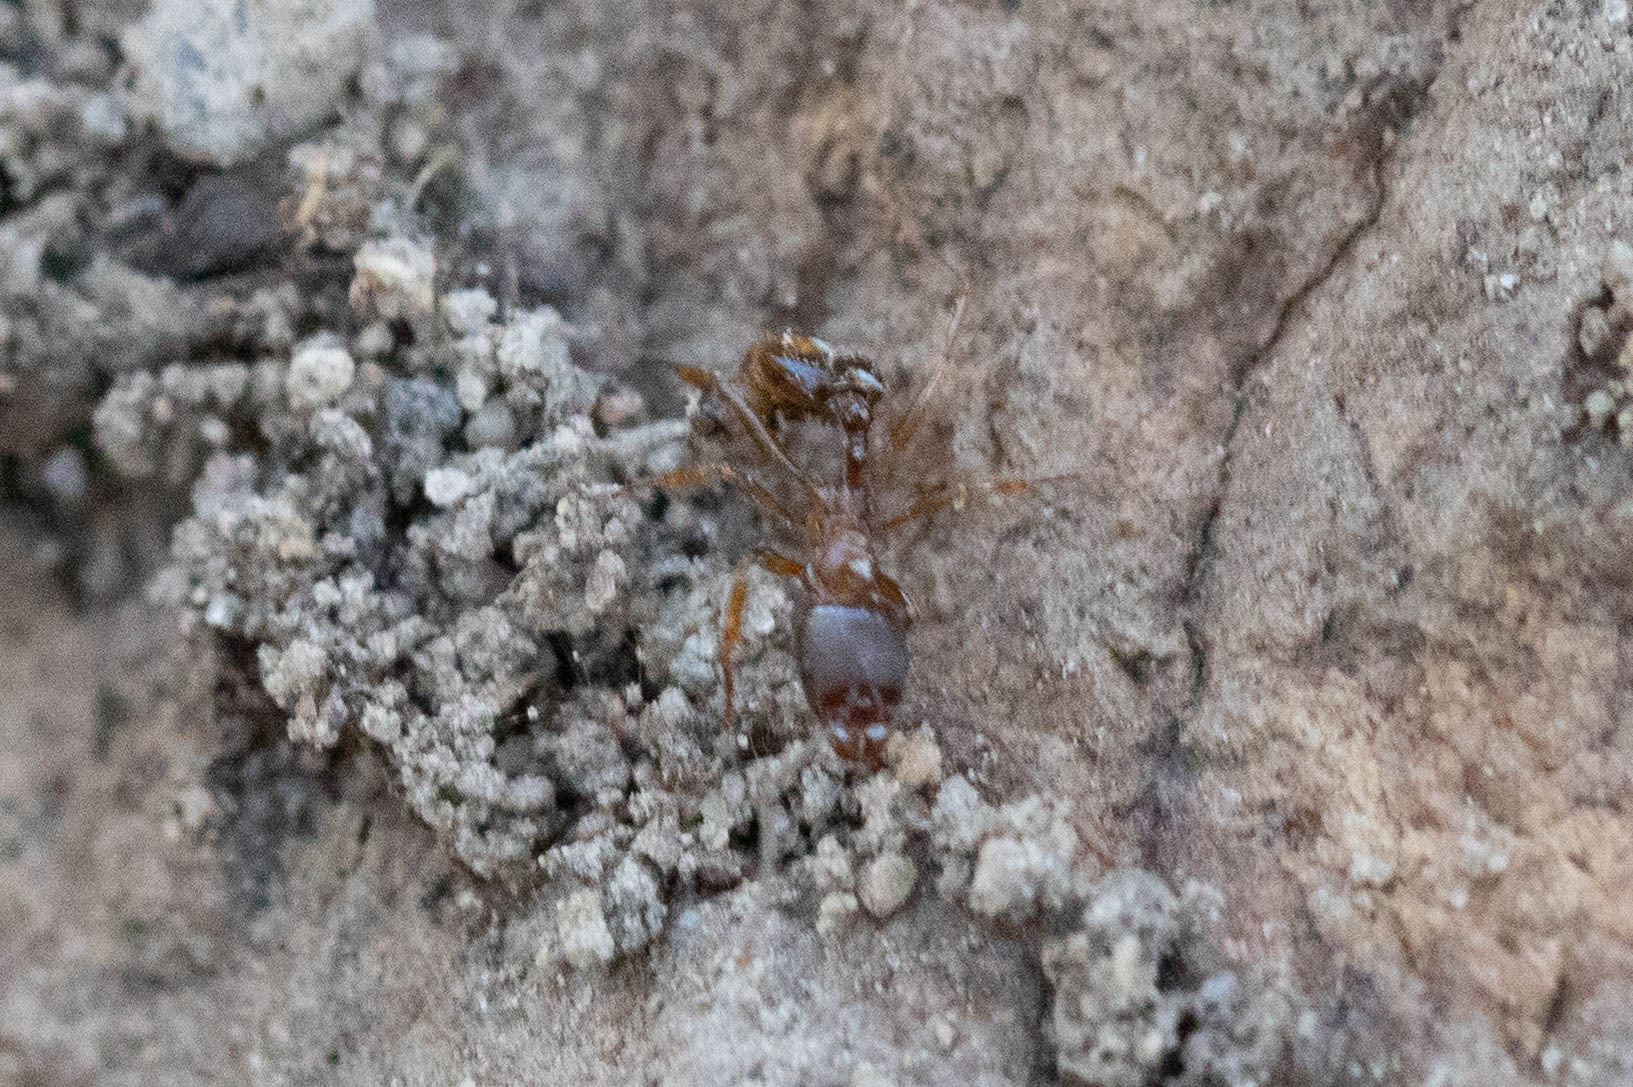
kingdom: Animalia
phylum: Arthropoda
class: Insecta
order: Hymenoptera
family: Formicidae
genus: Aphaenogaster
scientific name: Aphaenogaster occidentalis
